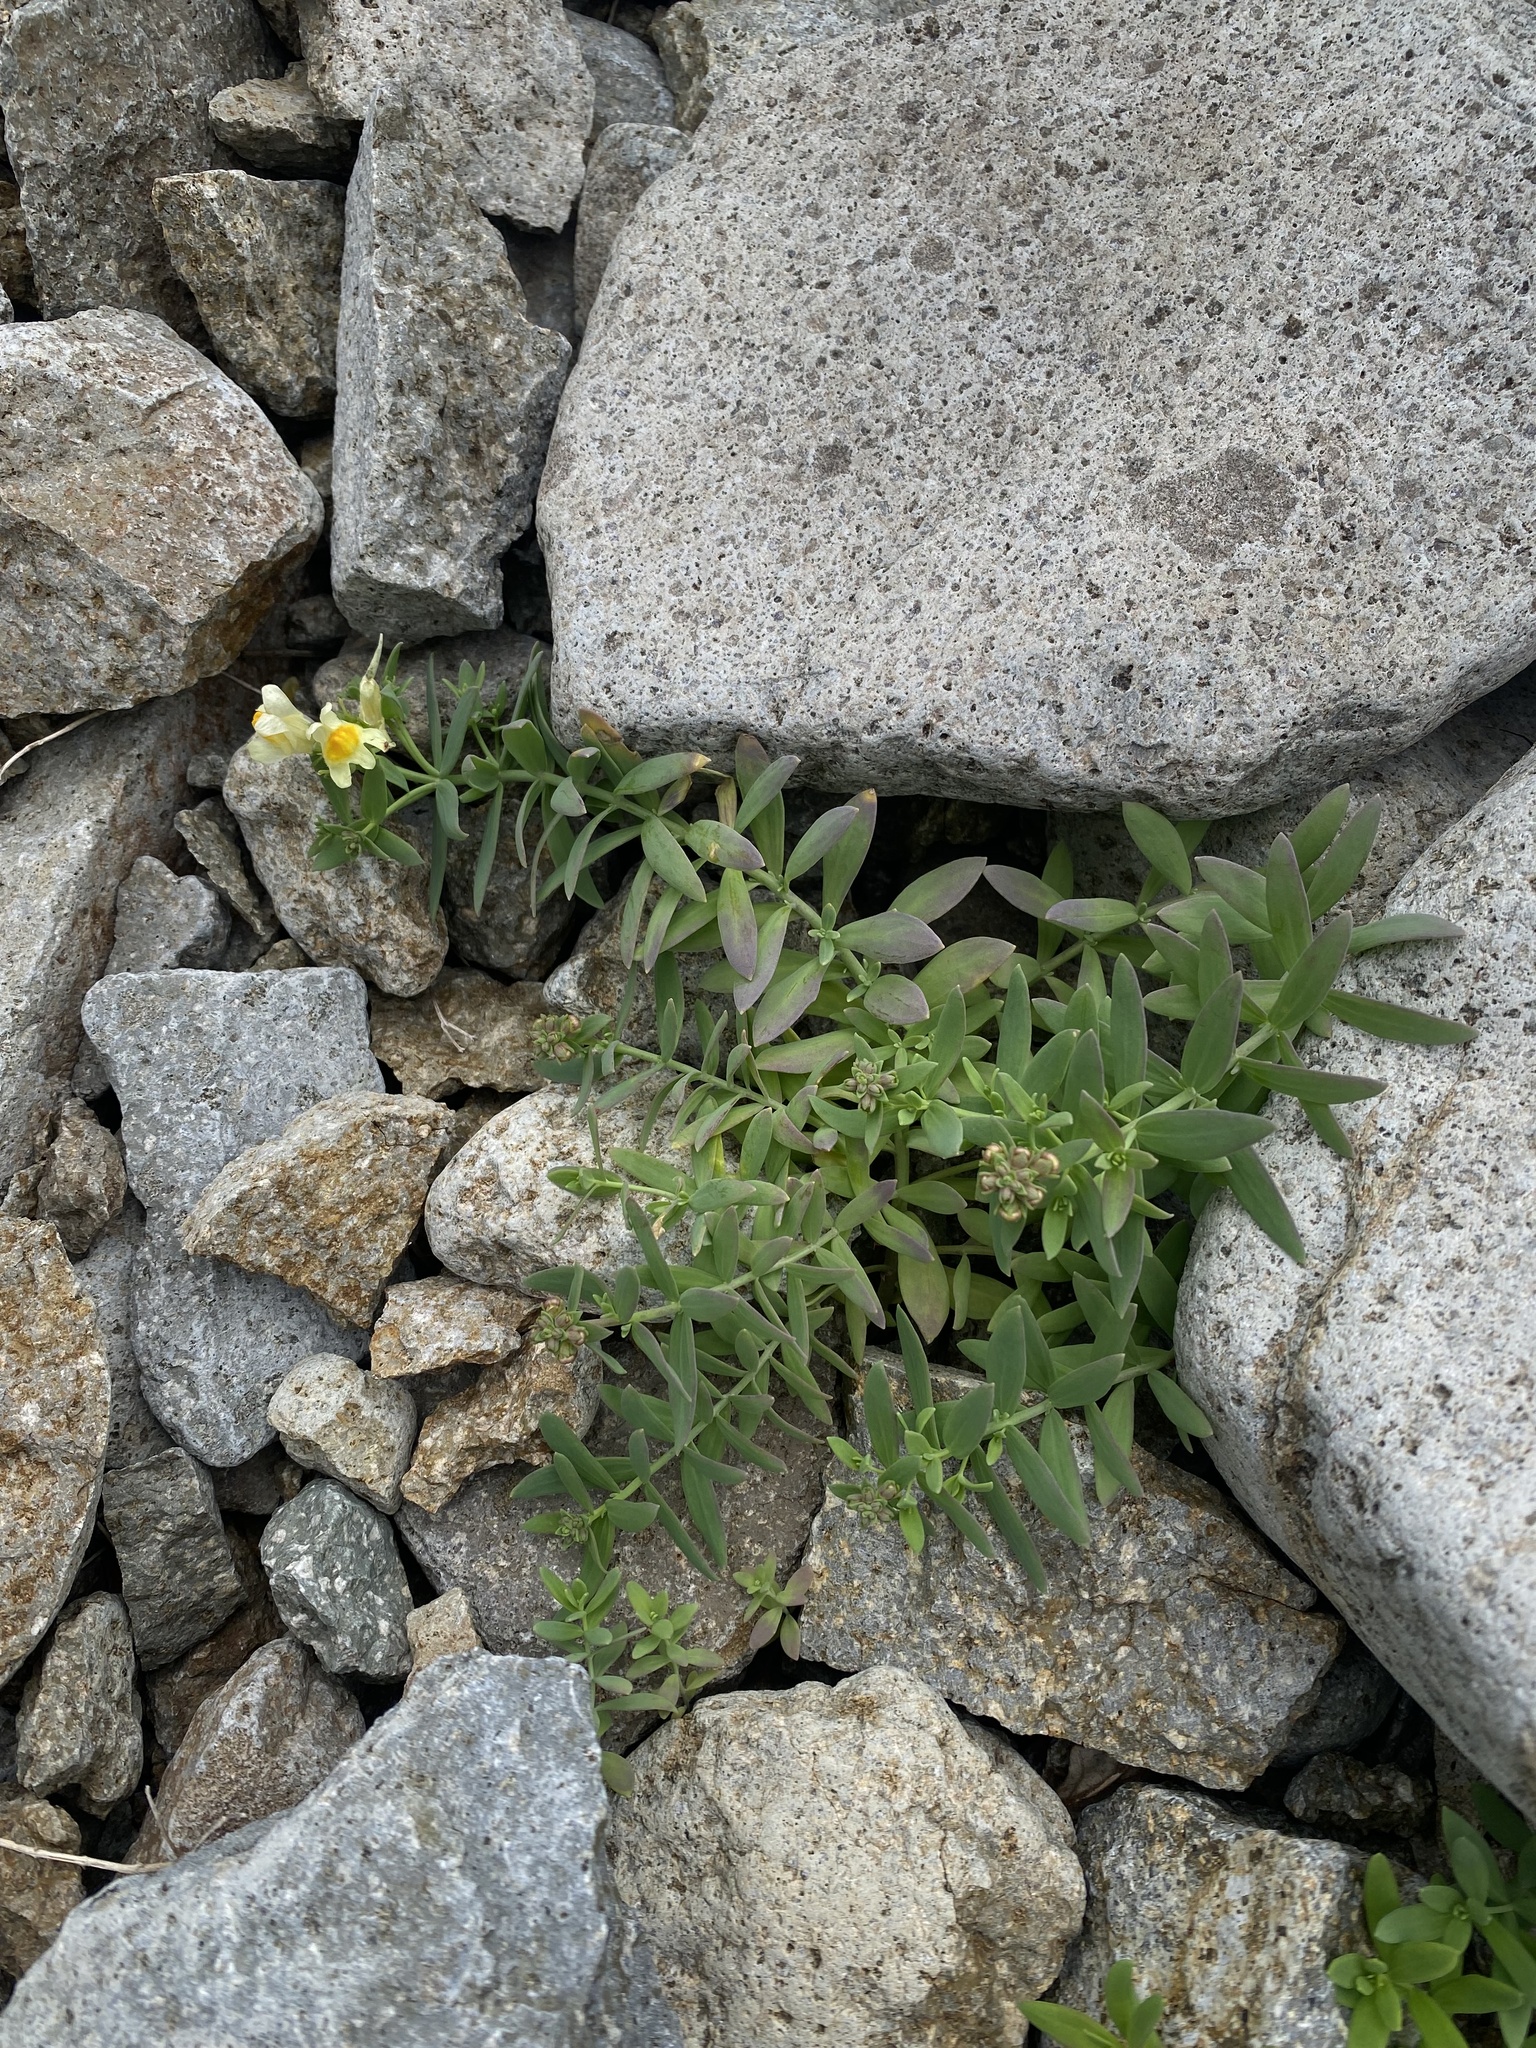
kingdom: Plantae
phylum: Tracheophyta
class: Magnoliopsida
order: Lamiales
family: Plantaginaceae
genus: Linaria
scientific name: Linaria japonica
